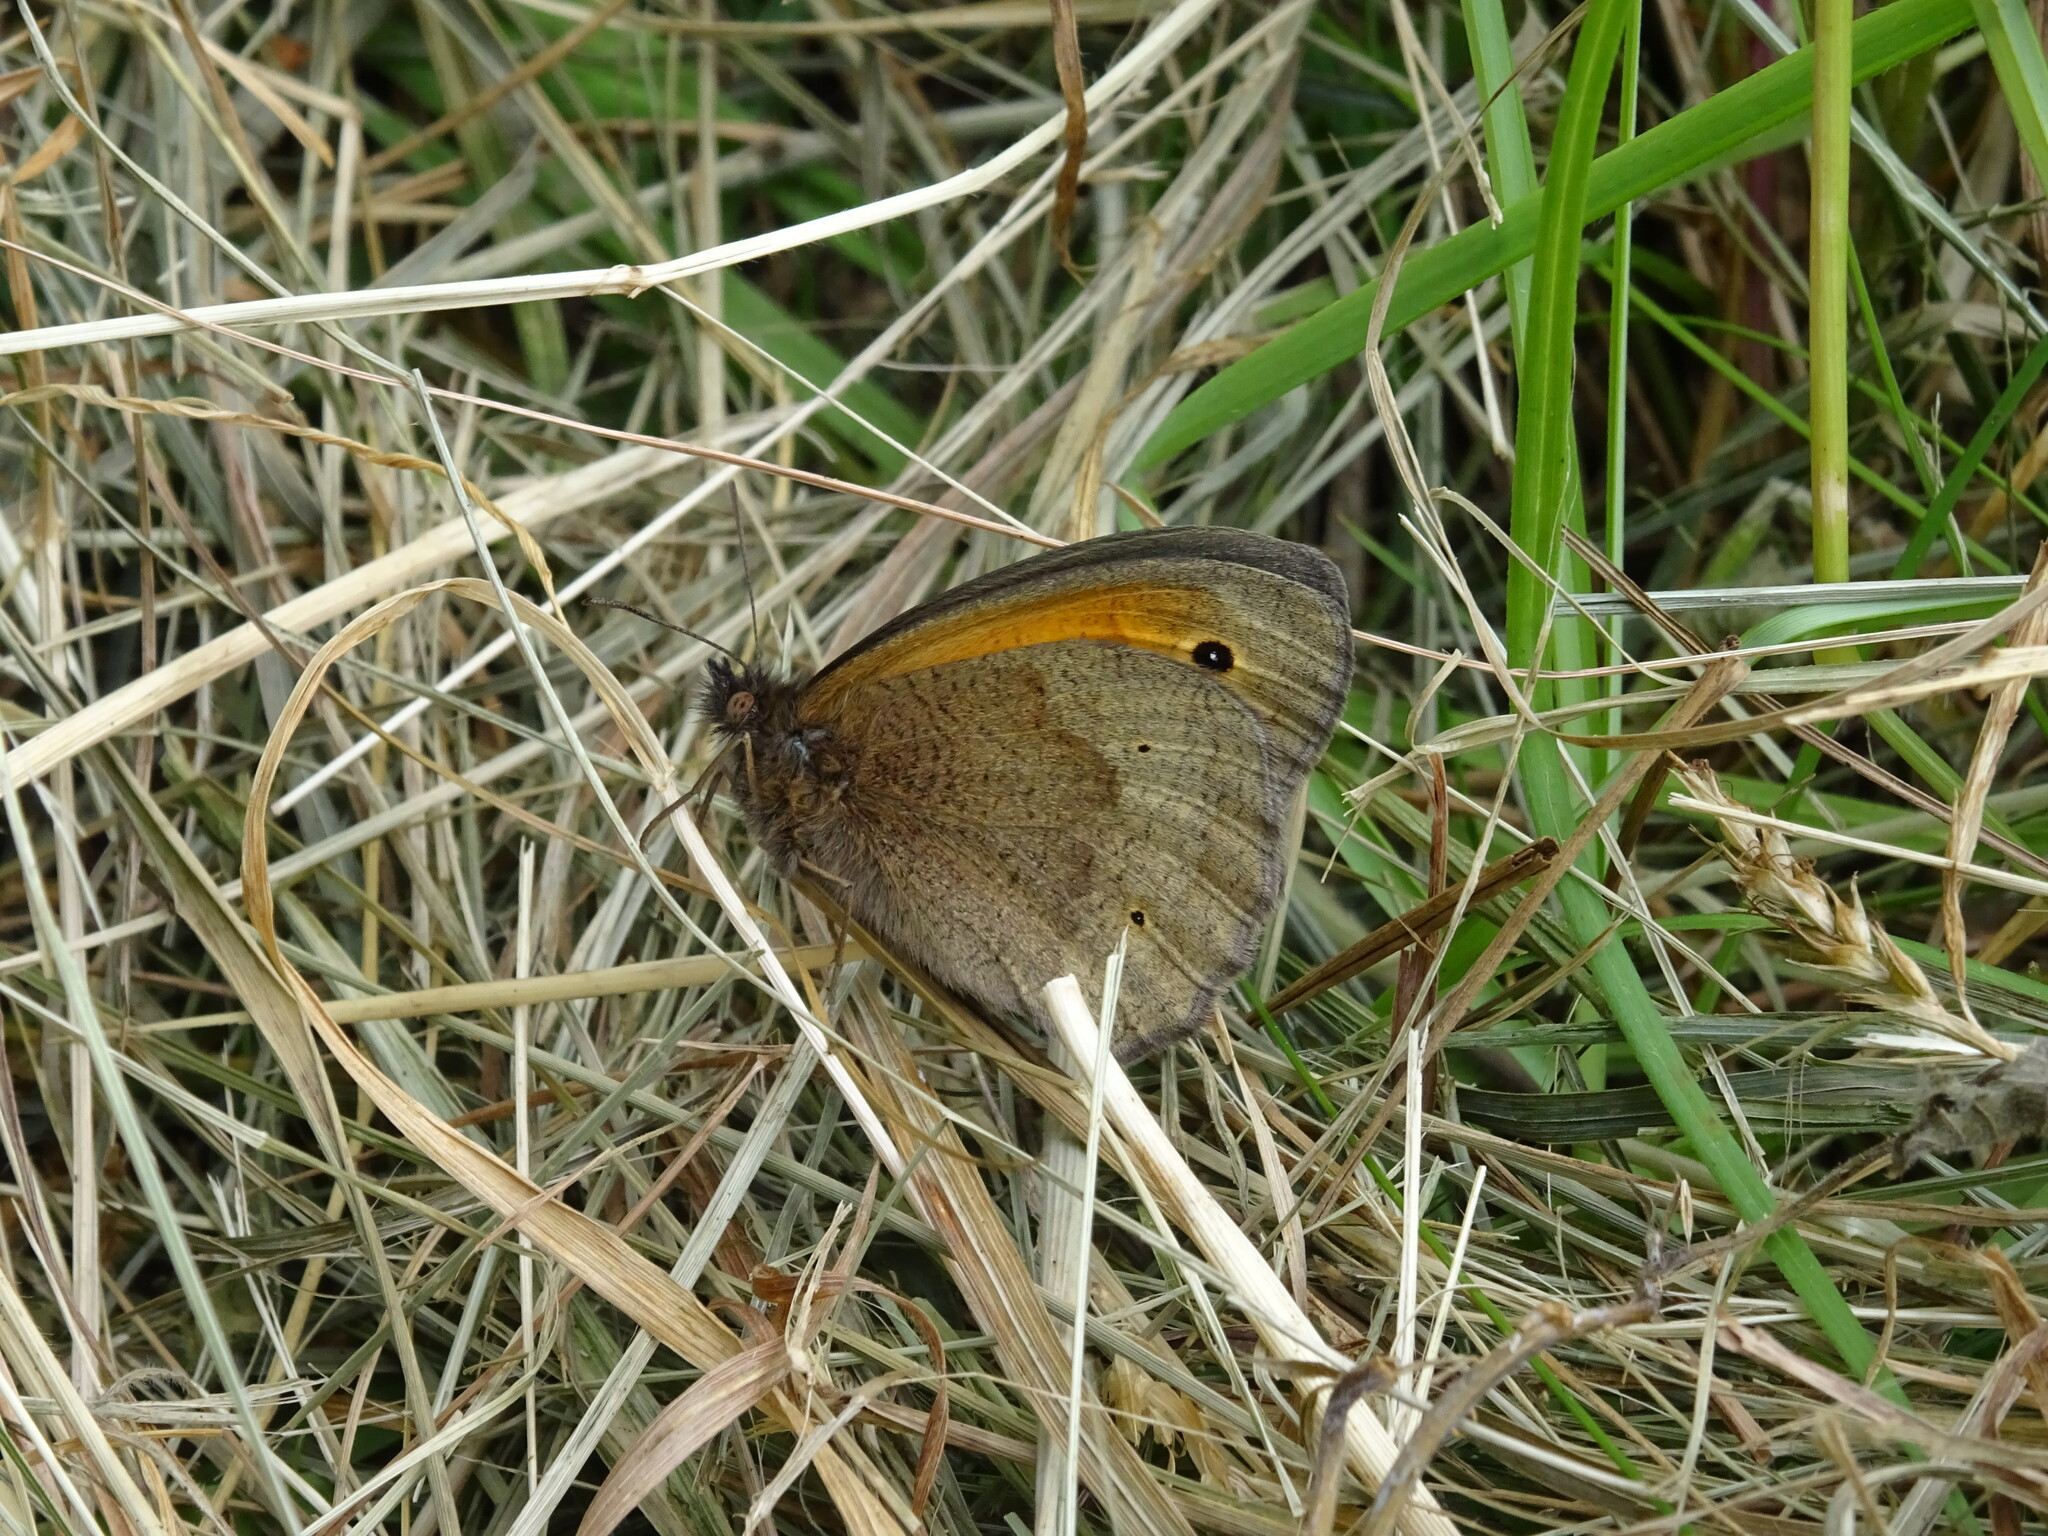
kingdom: Animalia
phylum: Arthropoda
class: Insecta
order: Lepidoptera
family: Nymphalidae
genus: Maniola
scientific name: Maniola jurtina
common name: Meadow brown
